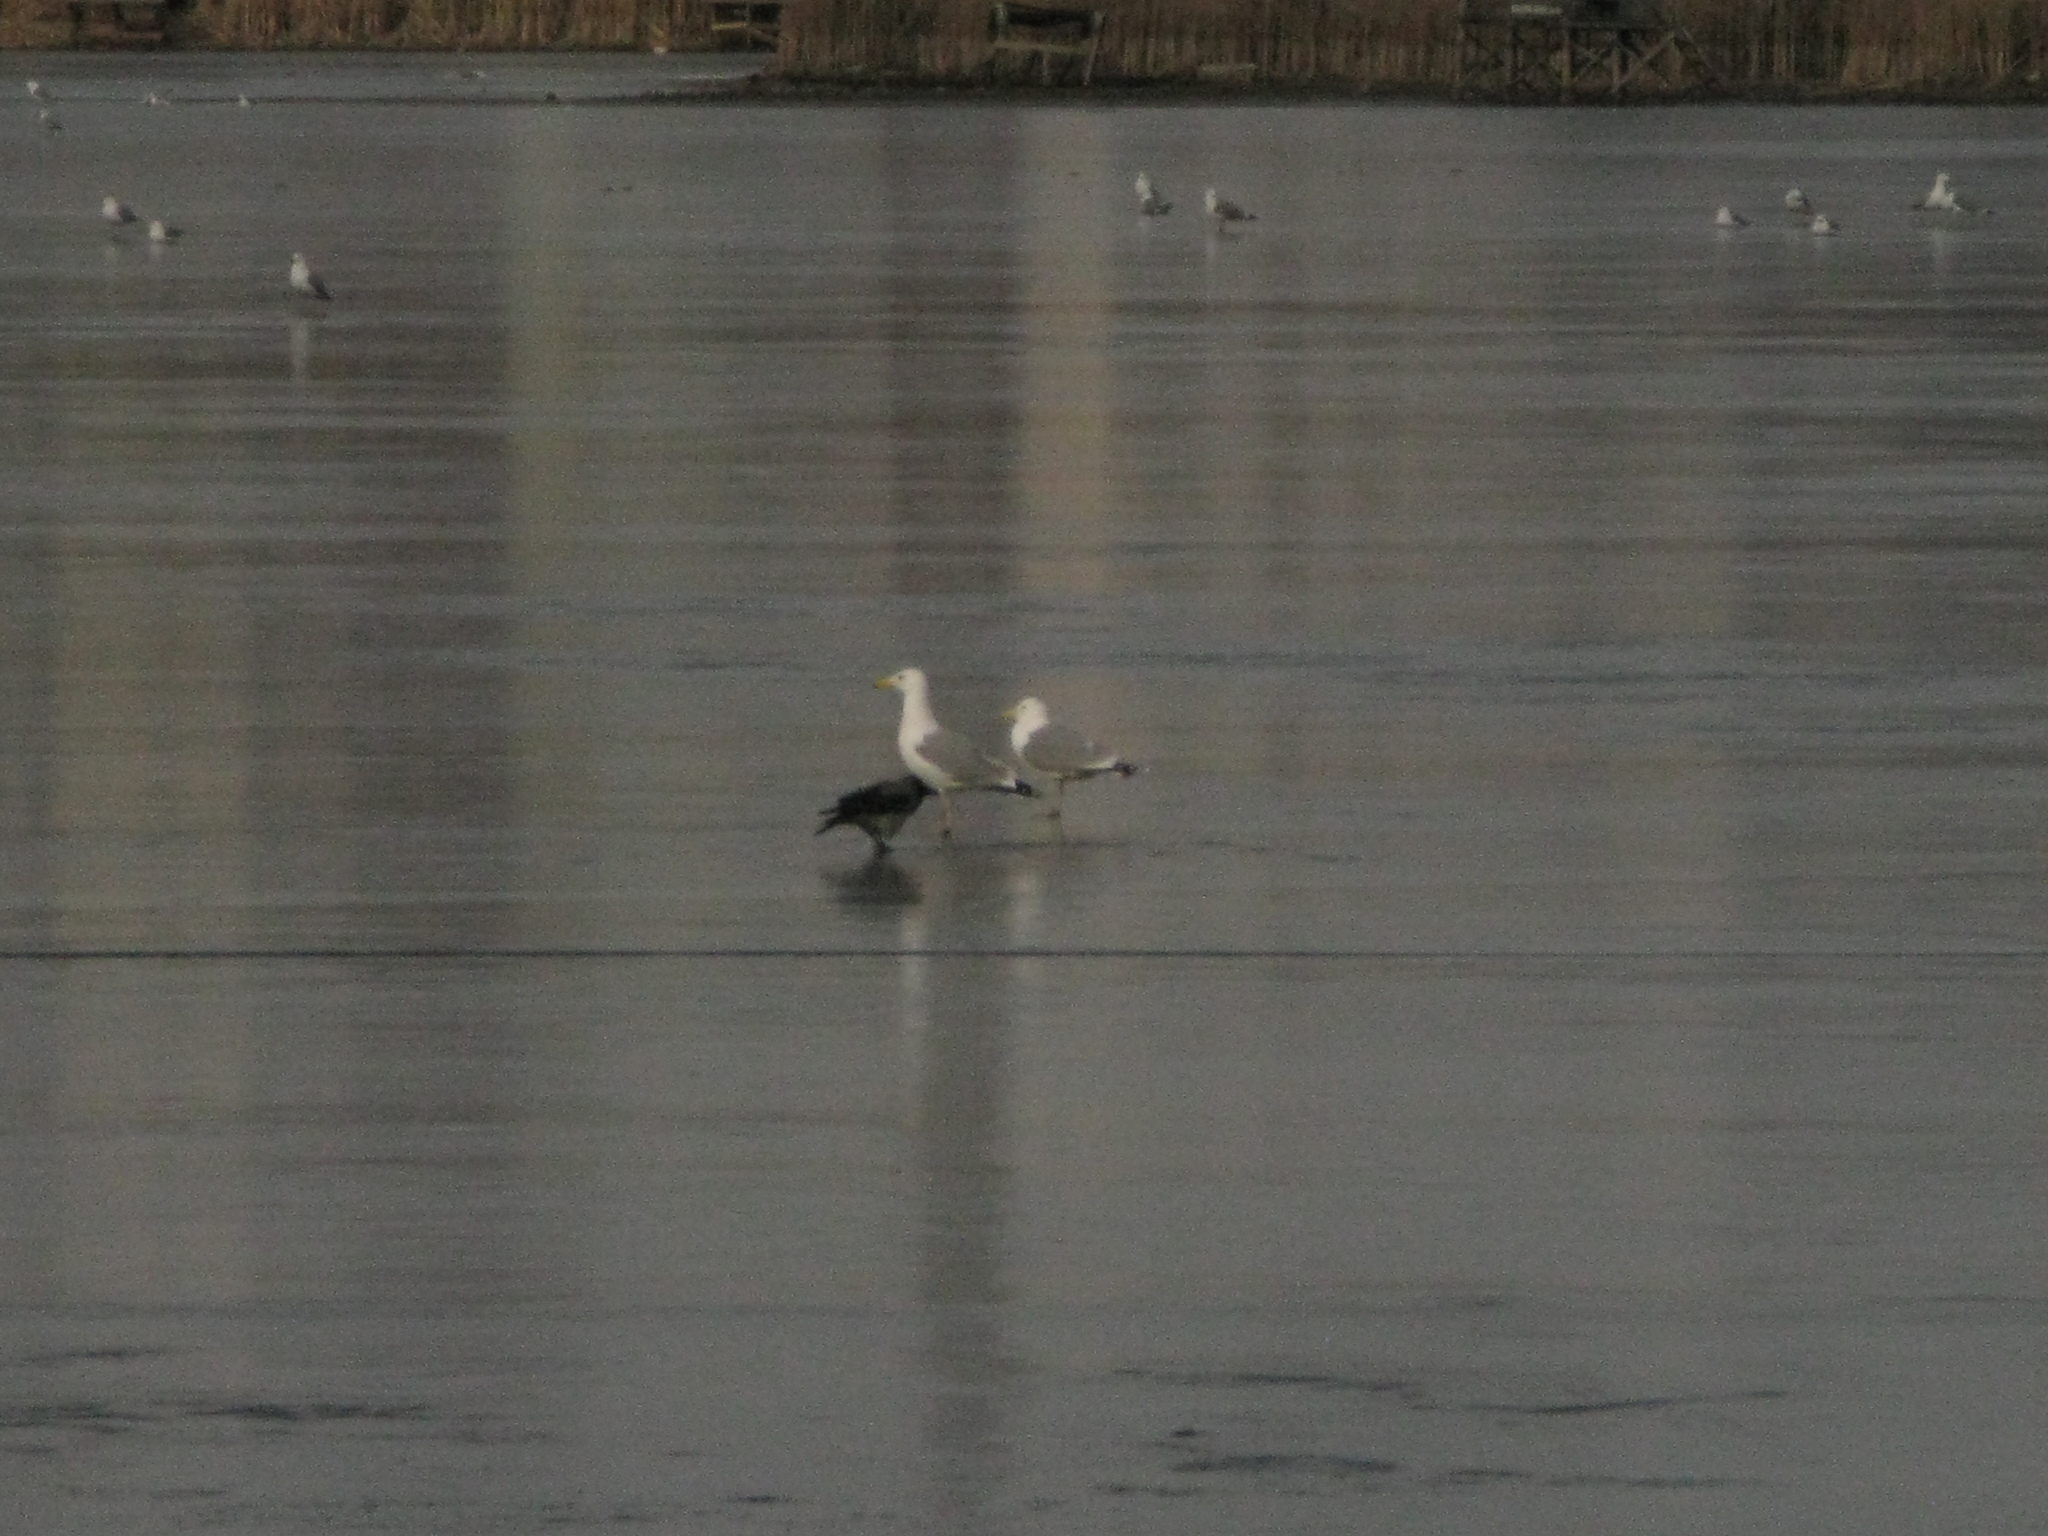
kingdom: Animalia
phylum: Chordata
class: Aves
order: Charadriiformes
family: Laridae
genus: Larus
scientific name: Larus cachinnans
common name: Caspian gull
